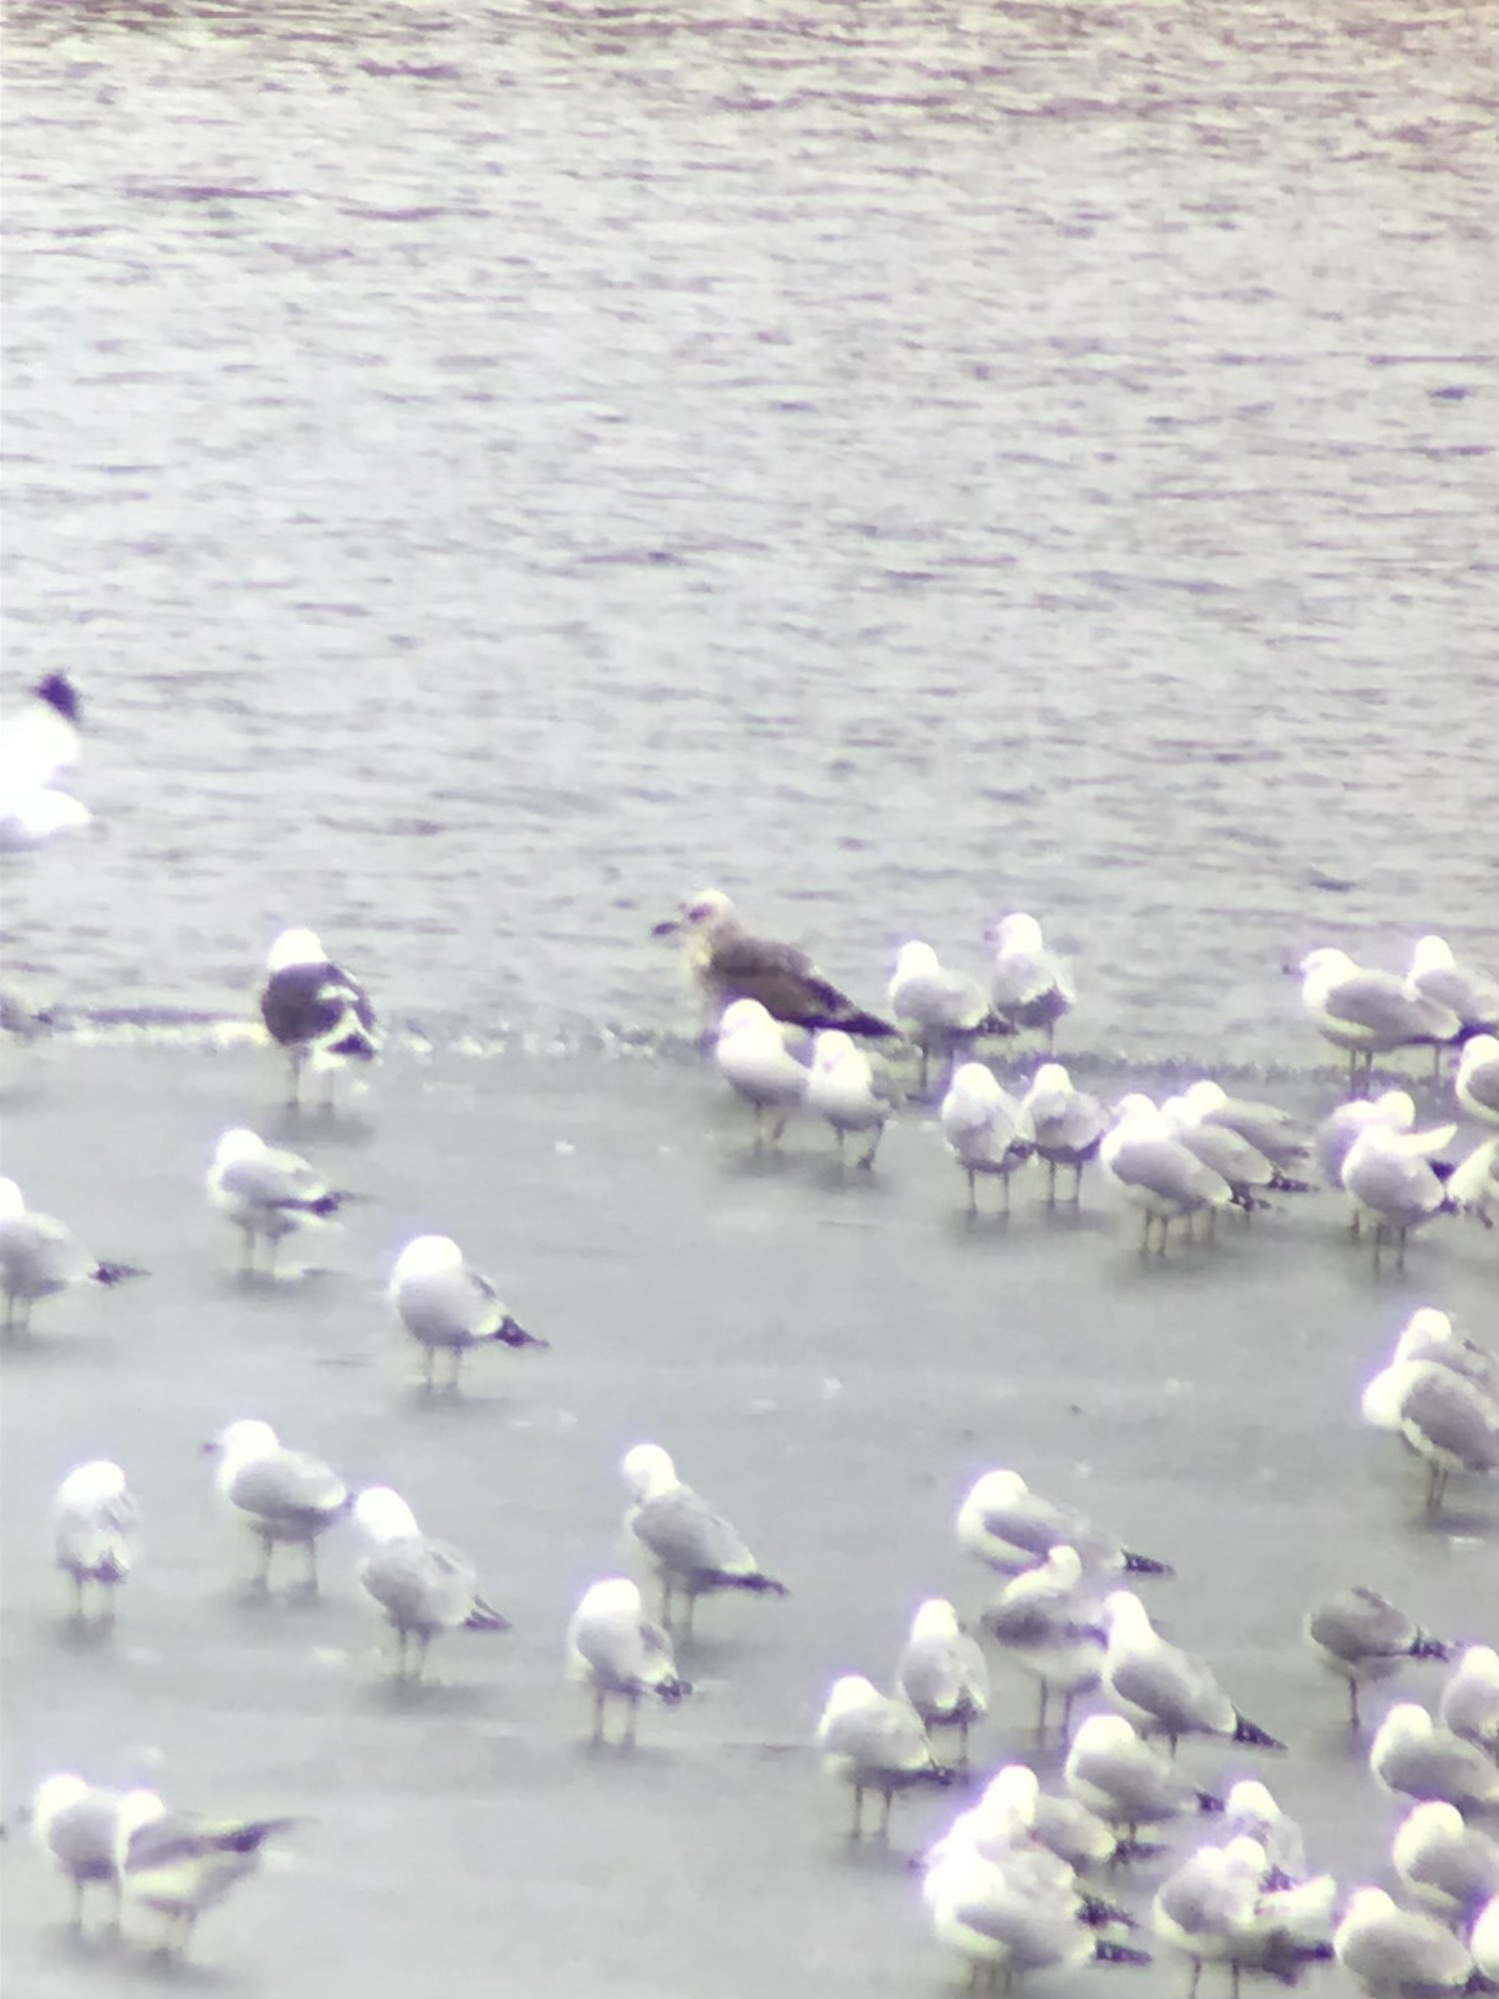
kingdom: Animalia
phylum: Chordata
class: Aves
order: Charadriiformes
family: Laridae
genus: Larus
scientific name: Larus fuscus
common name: Lesser black-backed gull
